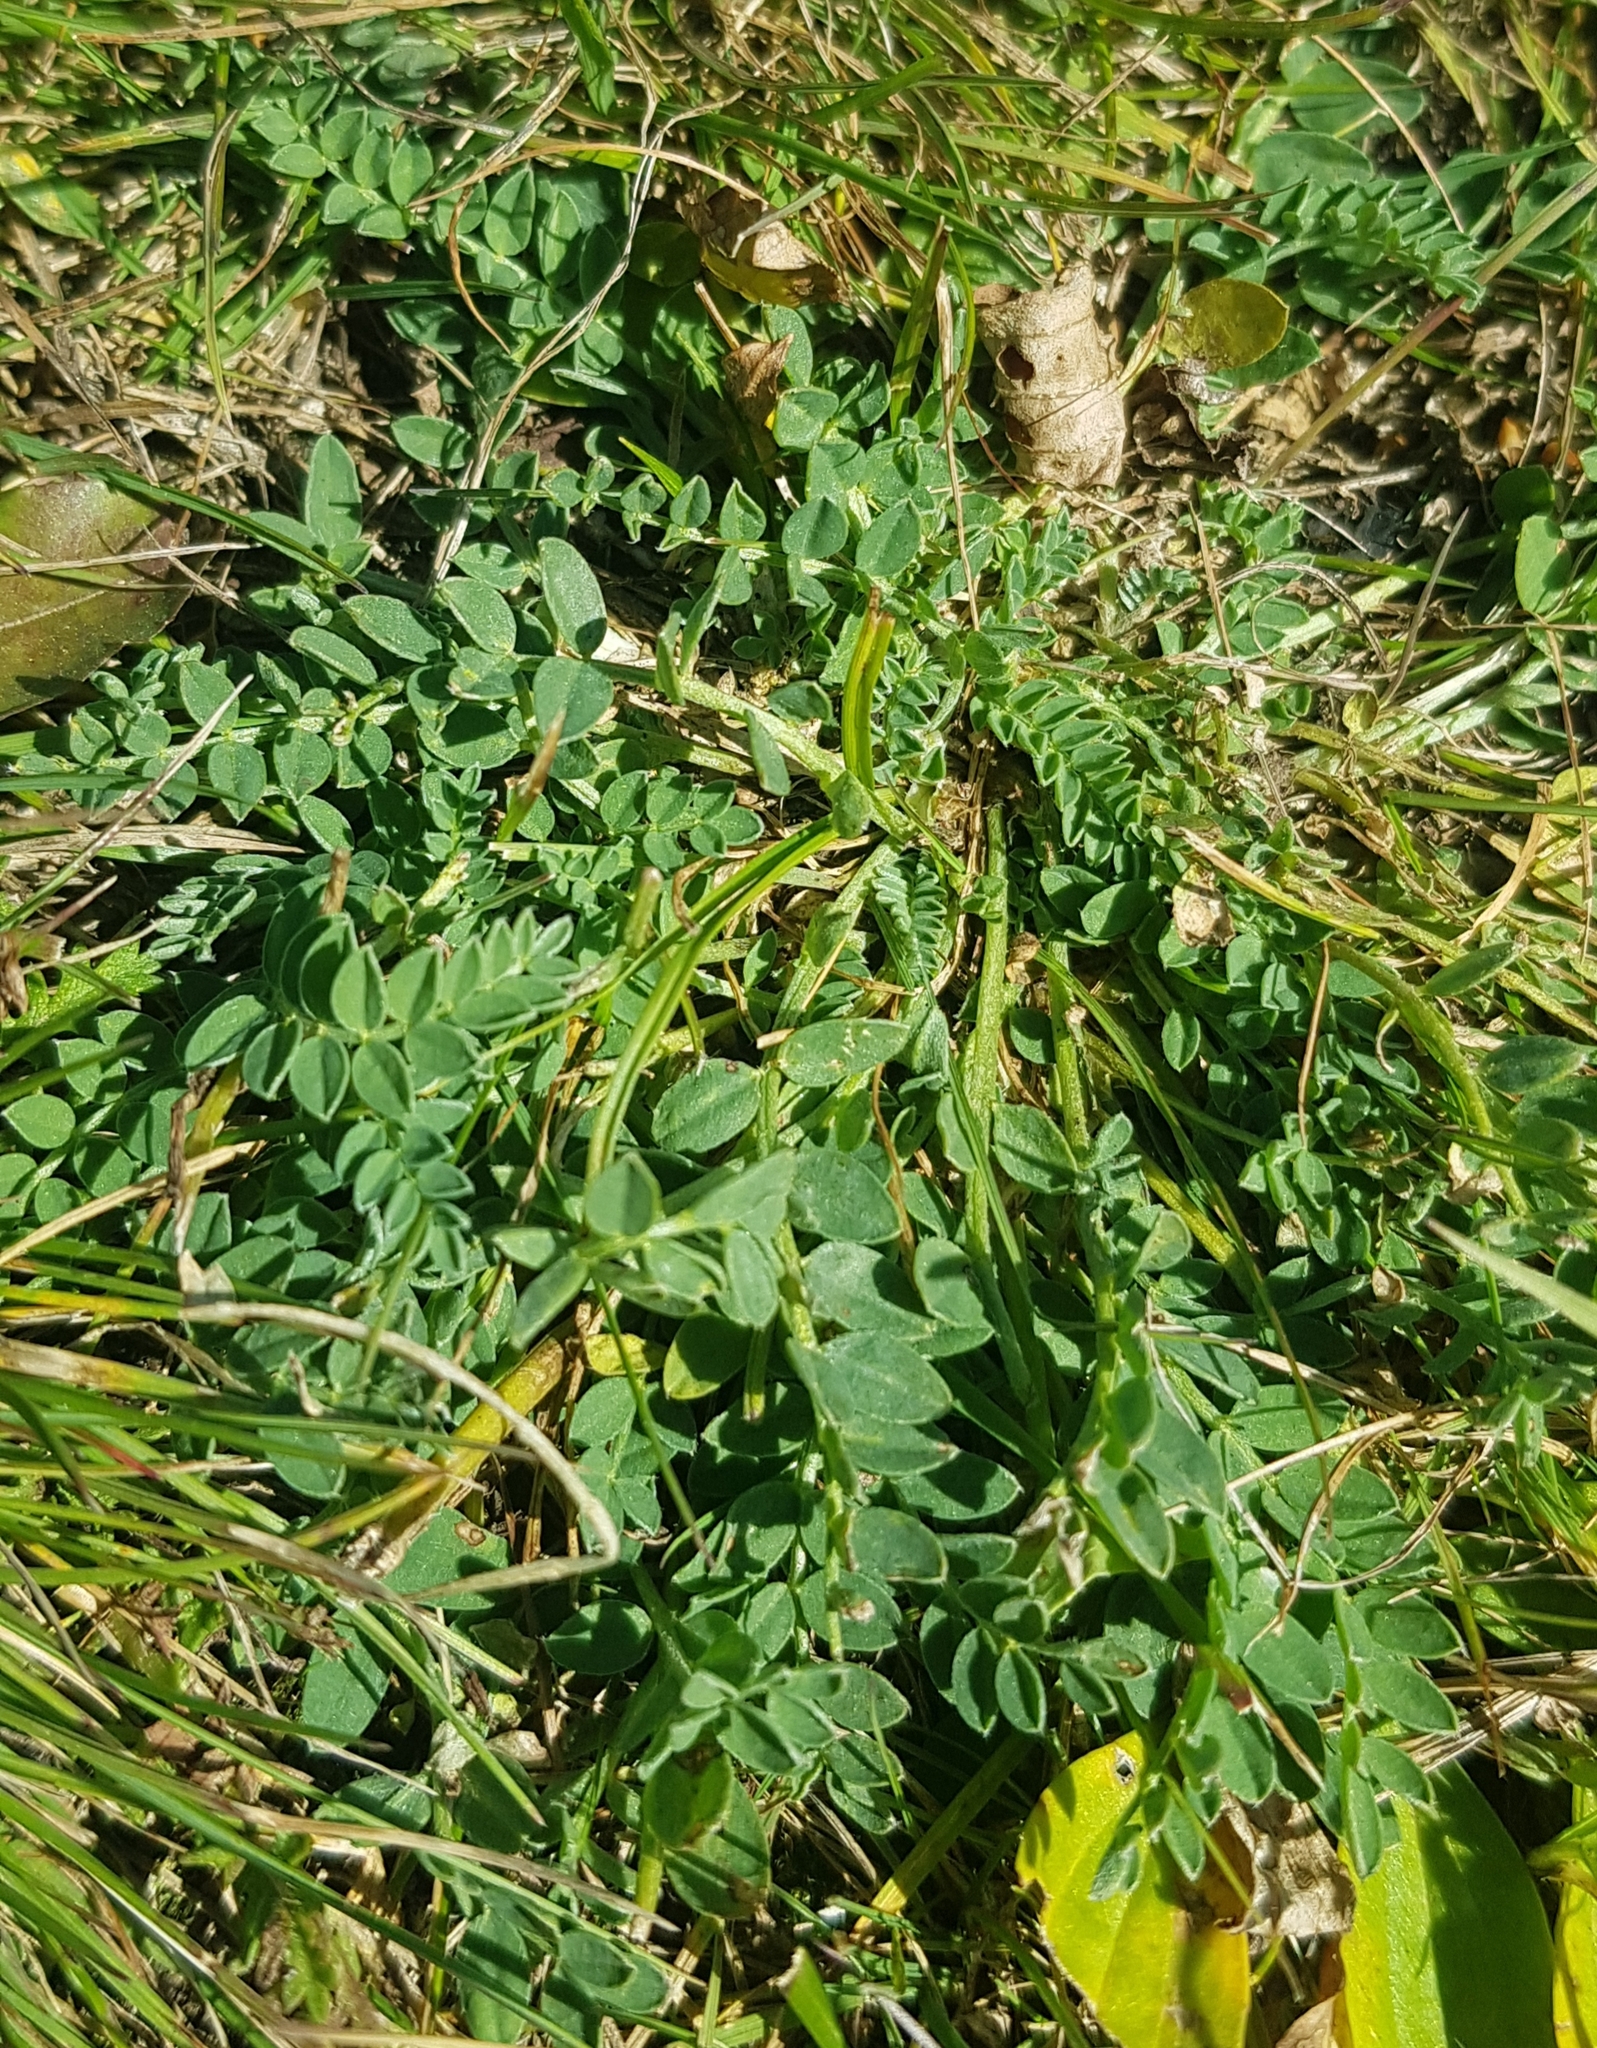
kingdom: Plantae
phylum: Tracheophyta
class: Magnoliopsida
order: Fabales
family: Fabaceae
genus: Astragalus
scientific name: Astragalus laxmannii
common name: Laxmann's milk-vetch
